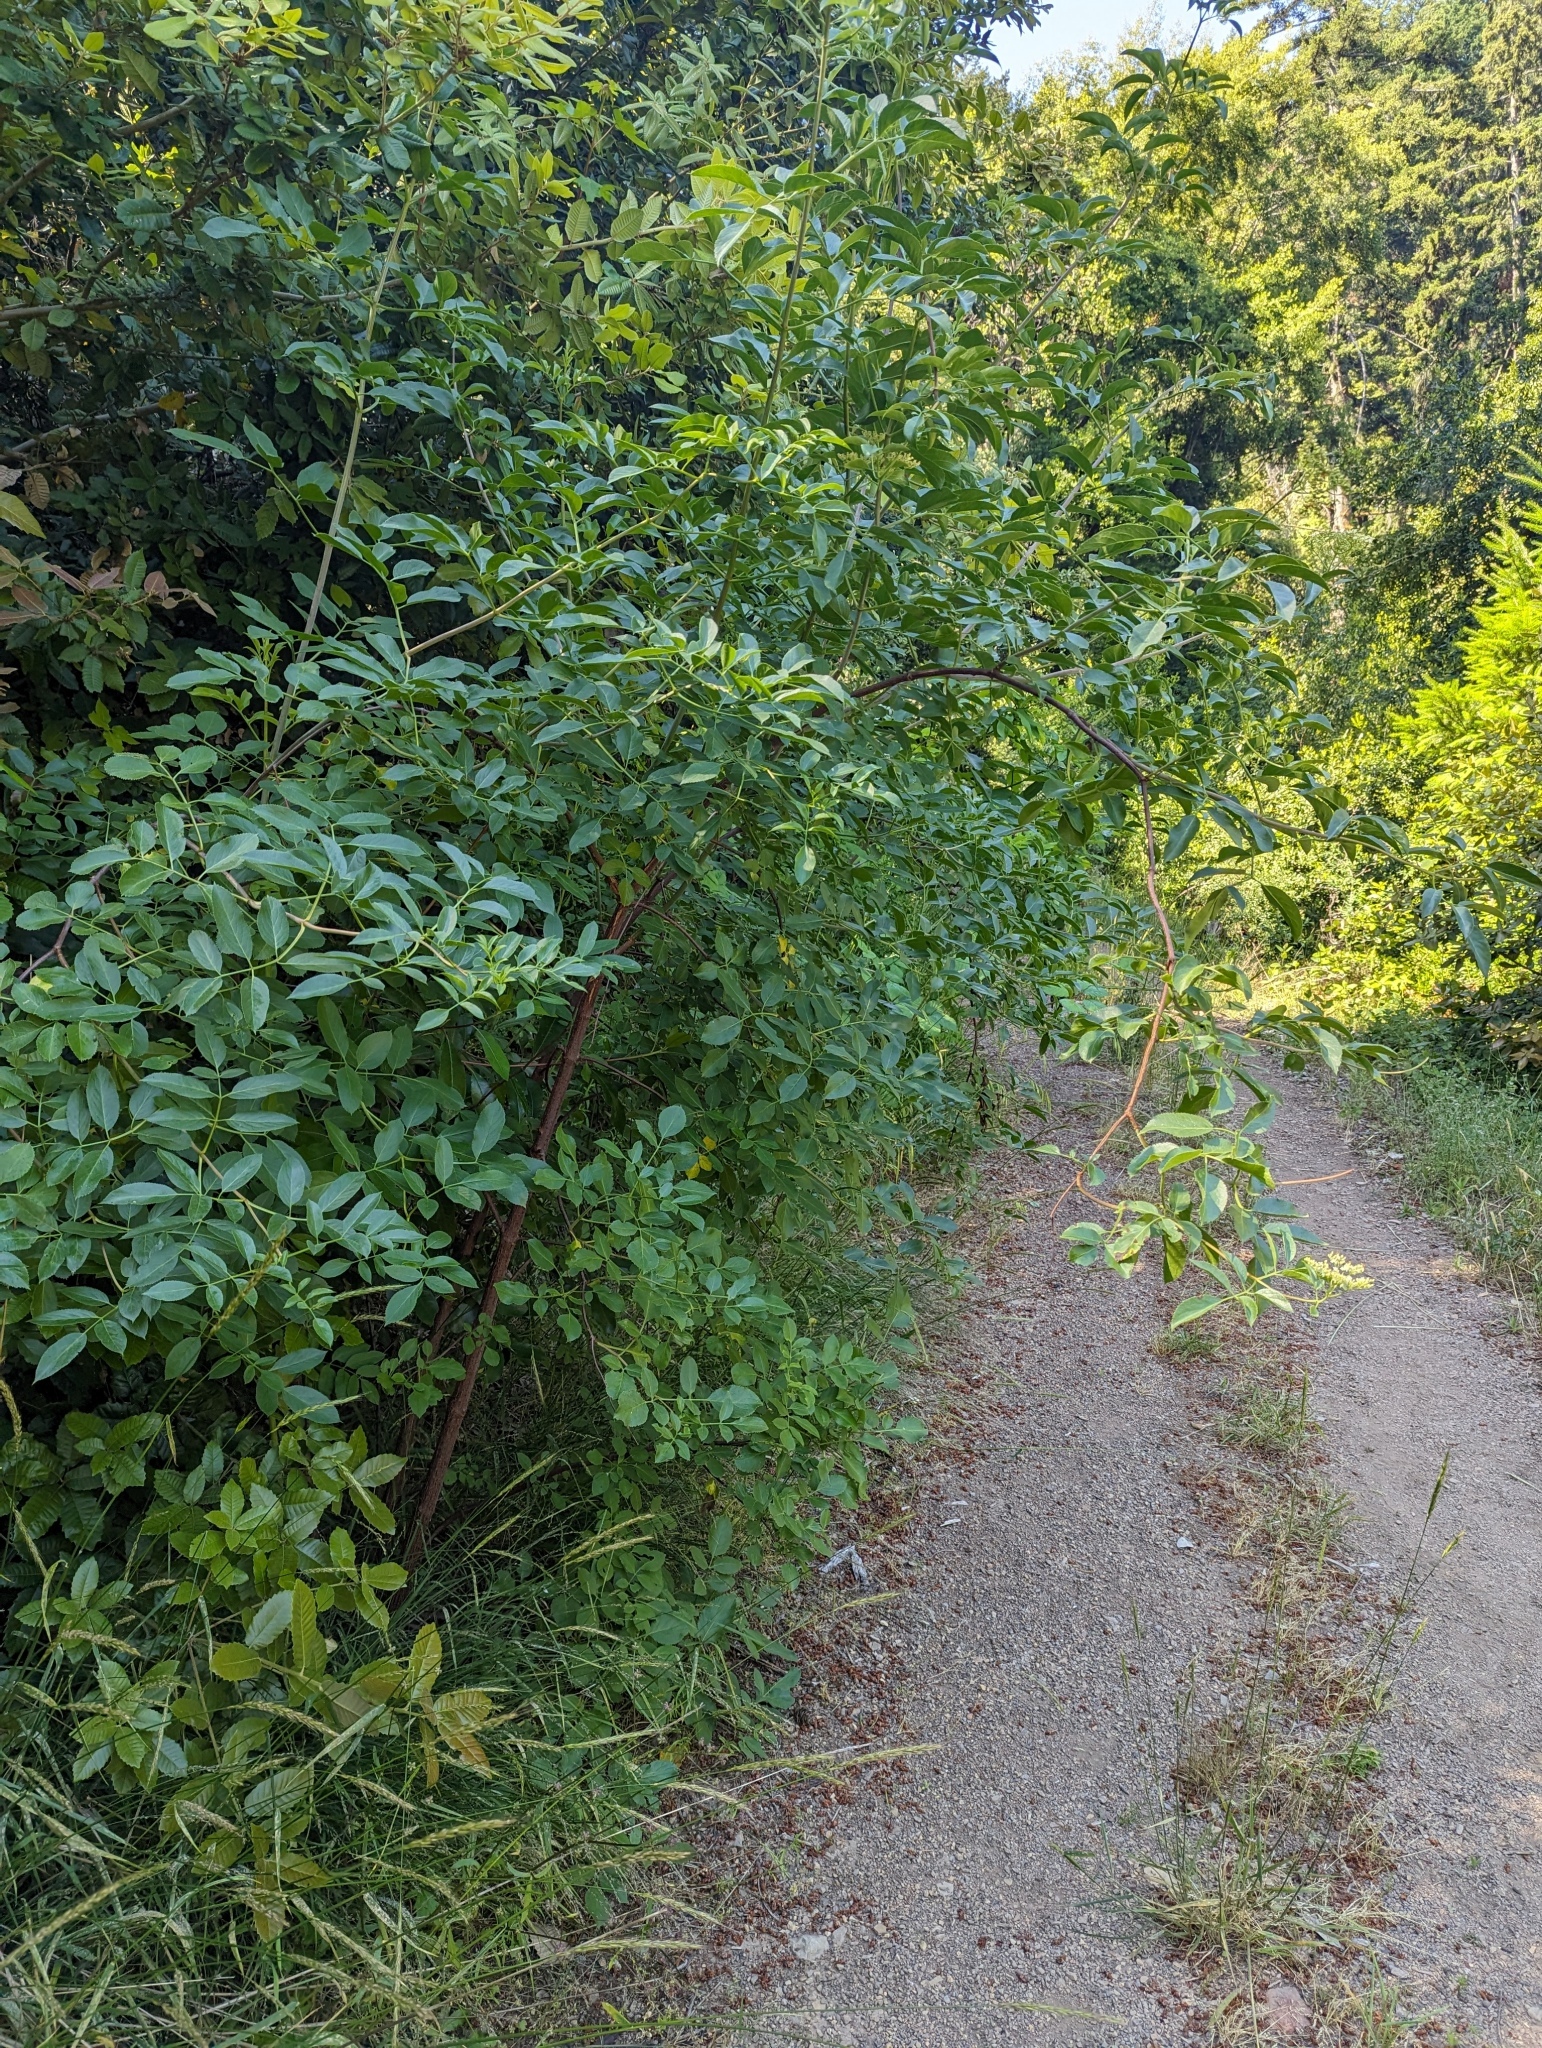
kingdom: Plantae
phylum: Tracheophyta
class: Magnoliopsida
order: Dipsacales
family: Viburnaceae
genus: Sambucus
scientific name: Sambucus cerulea
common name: Blue elder
